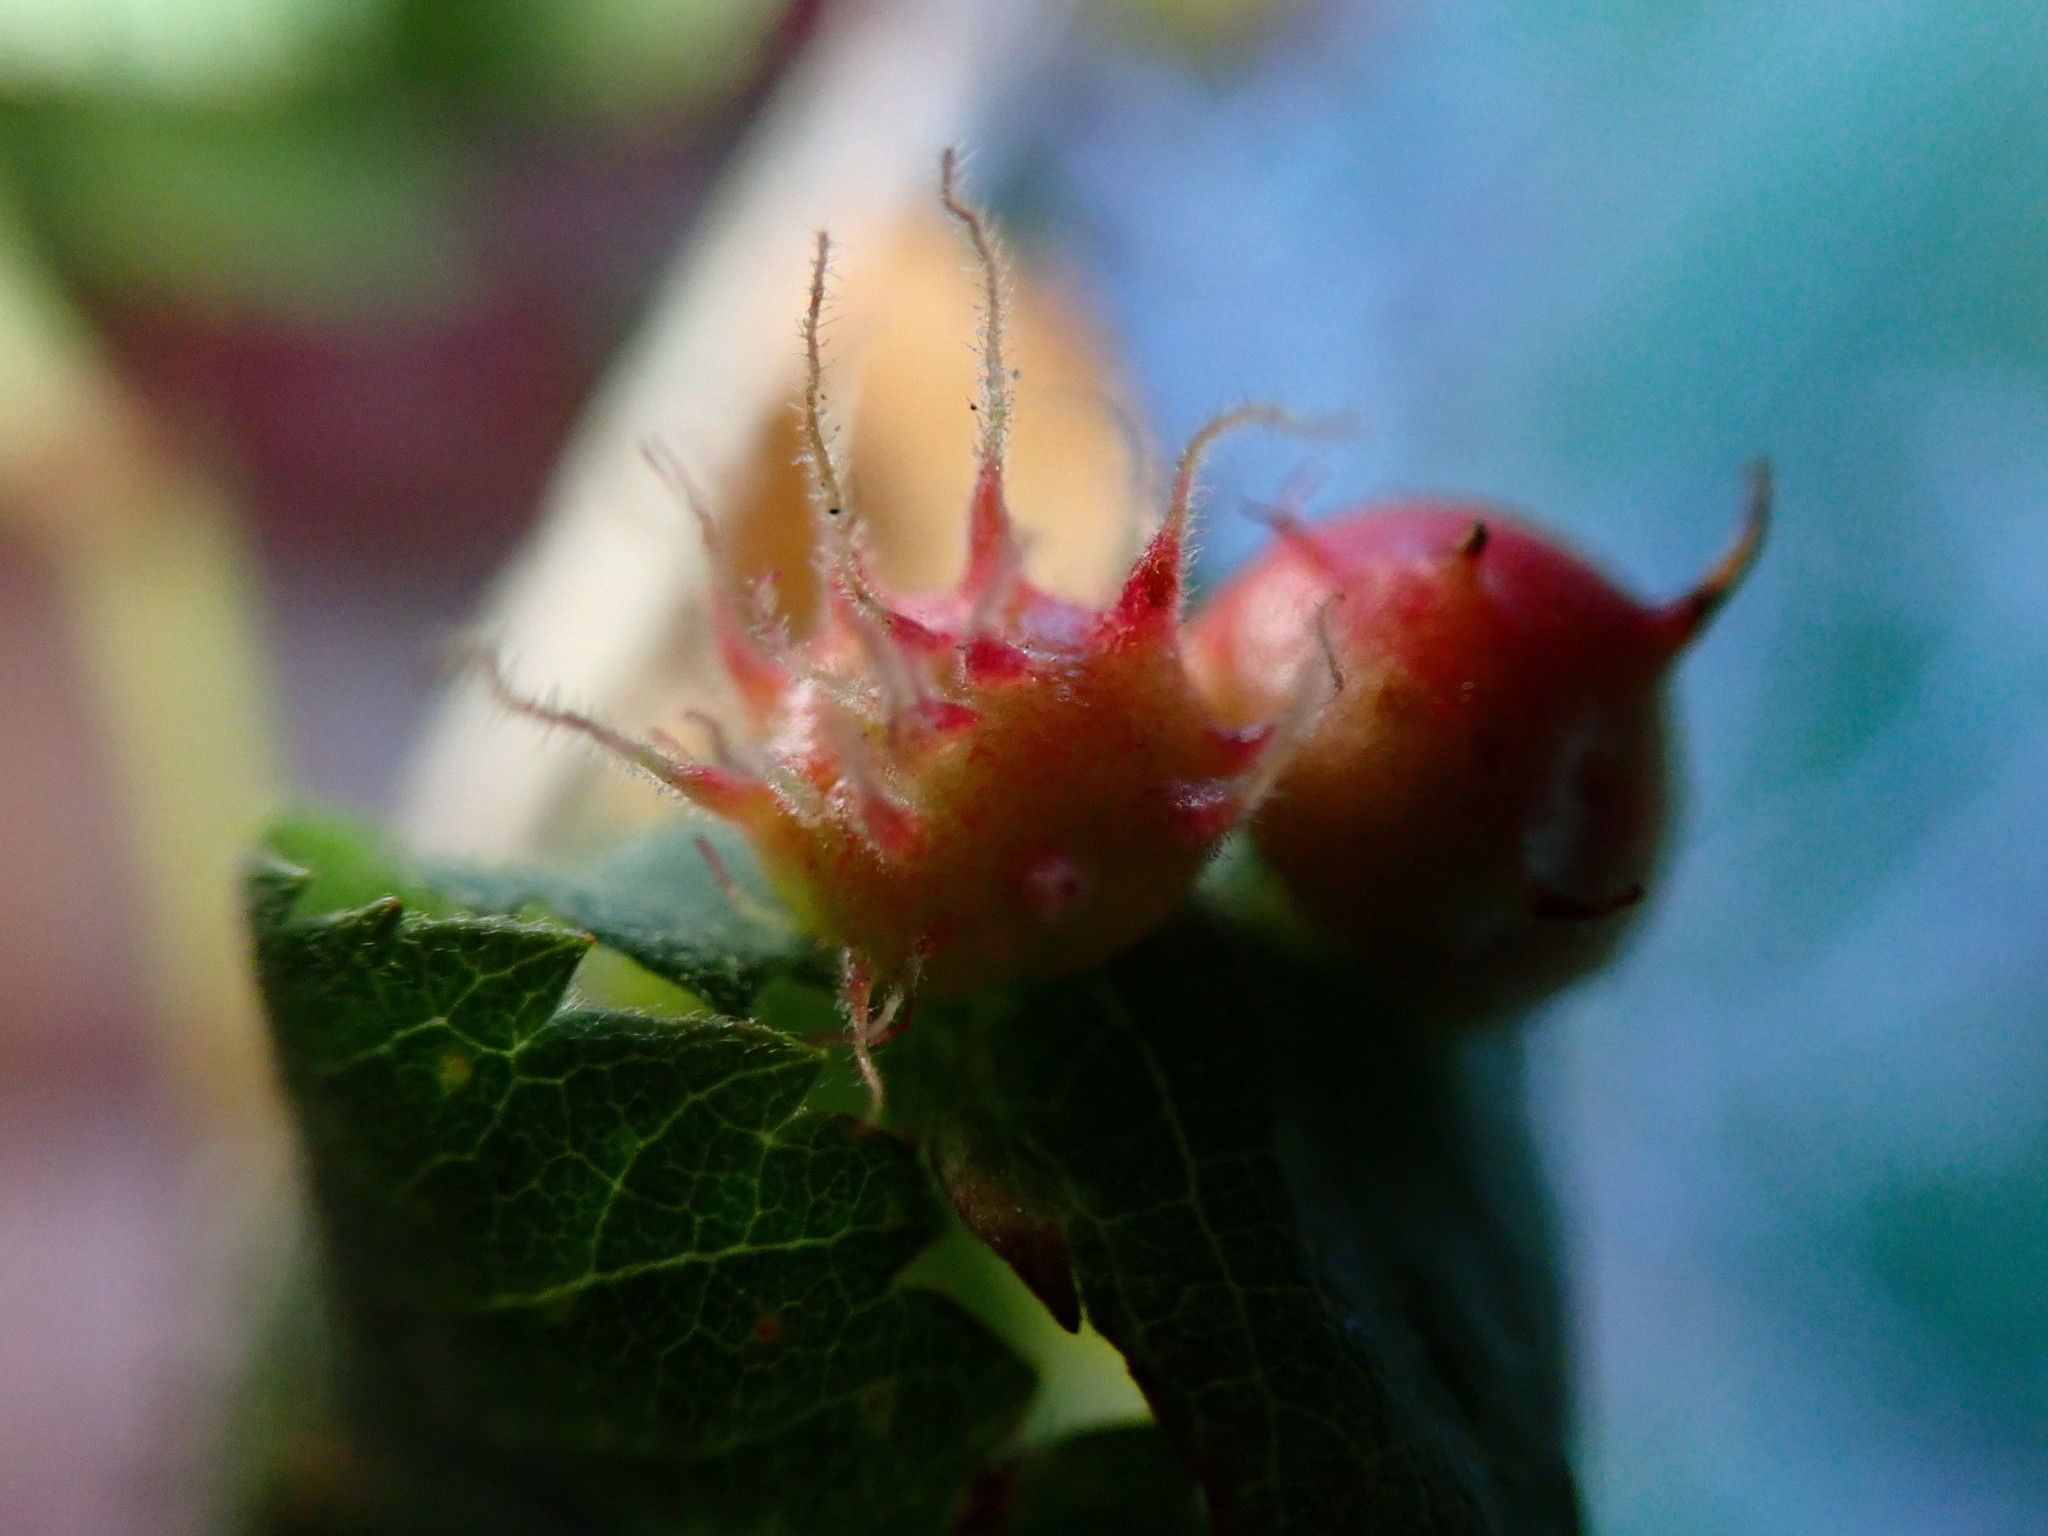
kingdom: Animalia
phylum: Arthropoda
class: Insecta
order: Hymenoptera
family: Cynipidae
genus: Diplolepis
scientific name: Diplolepis polita
